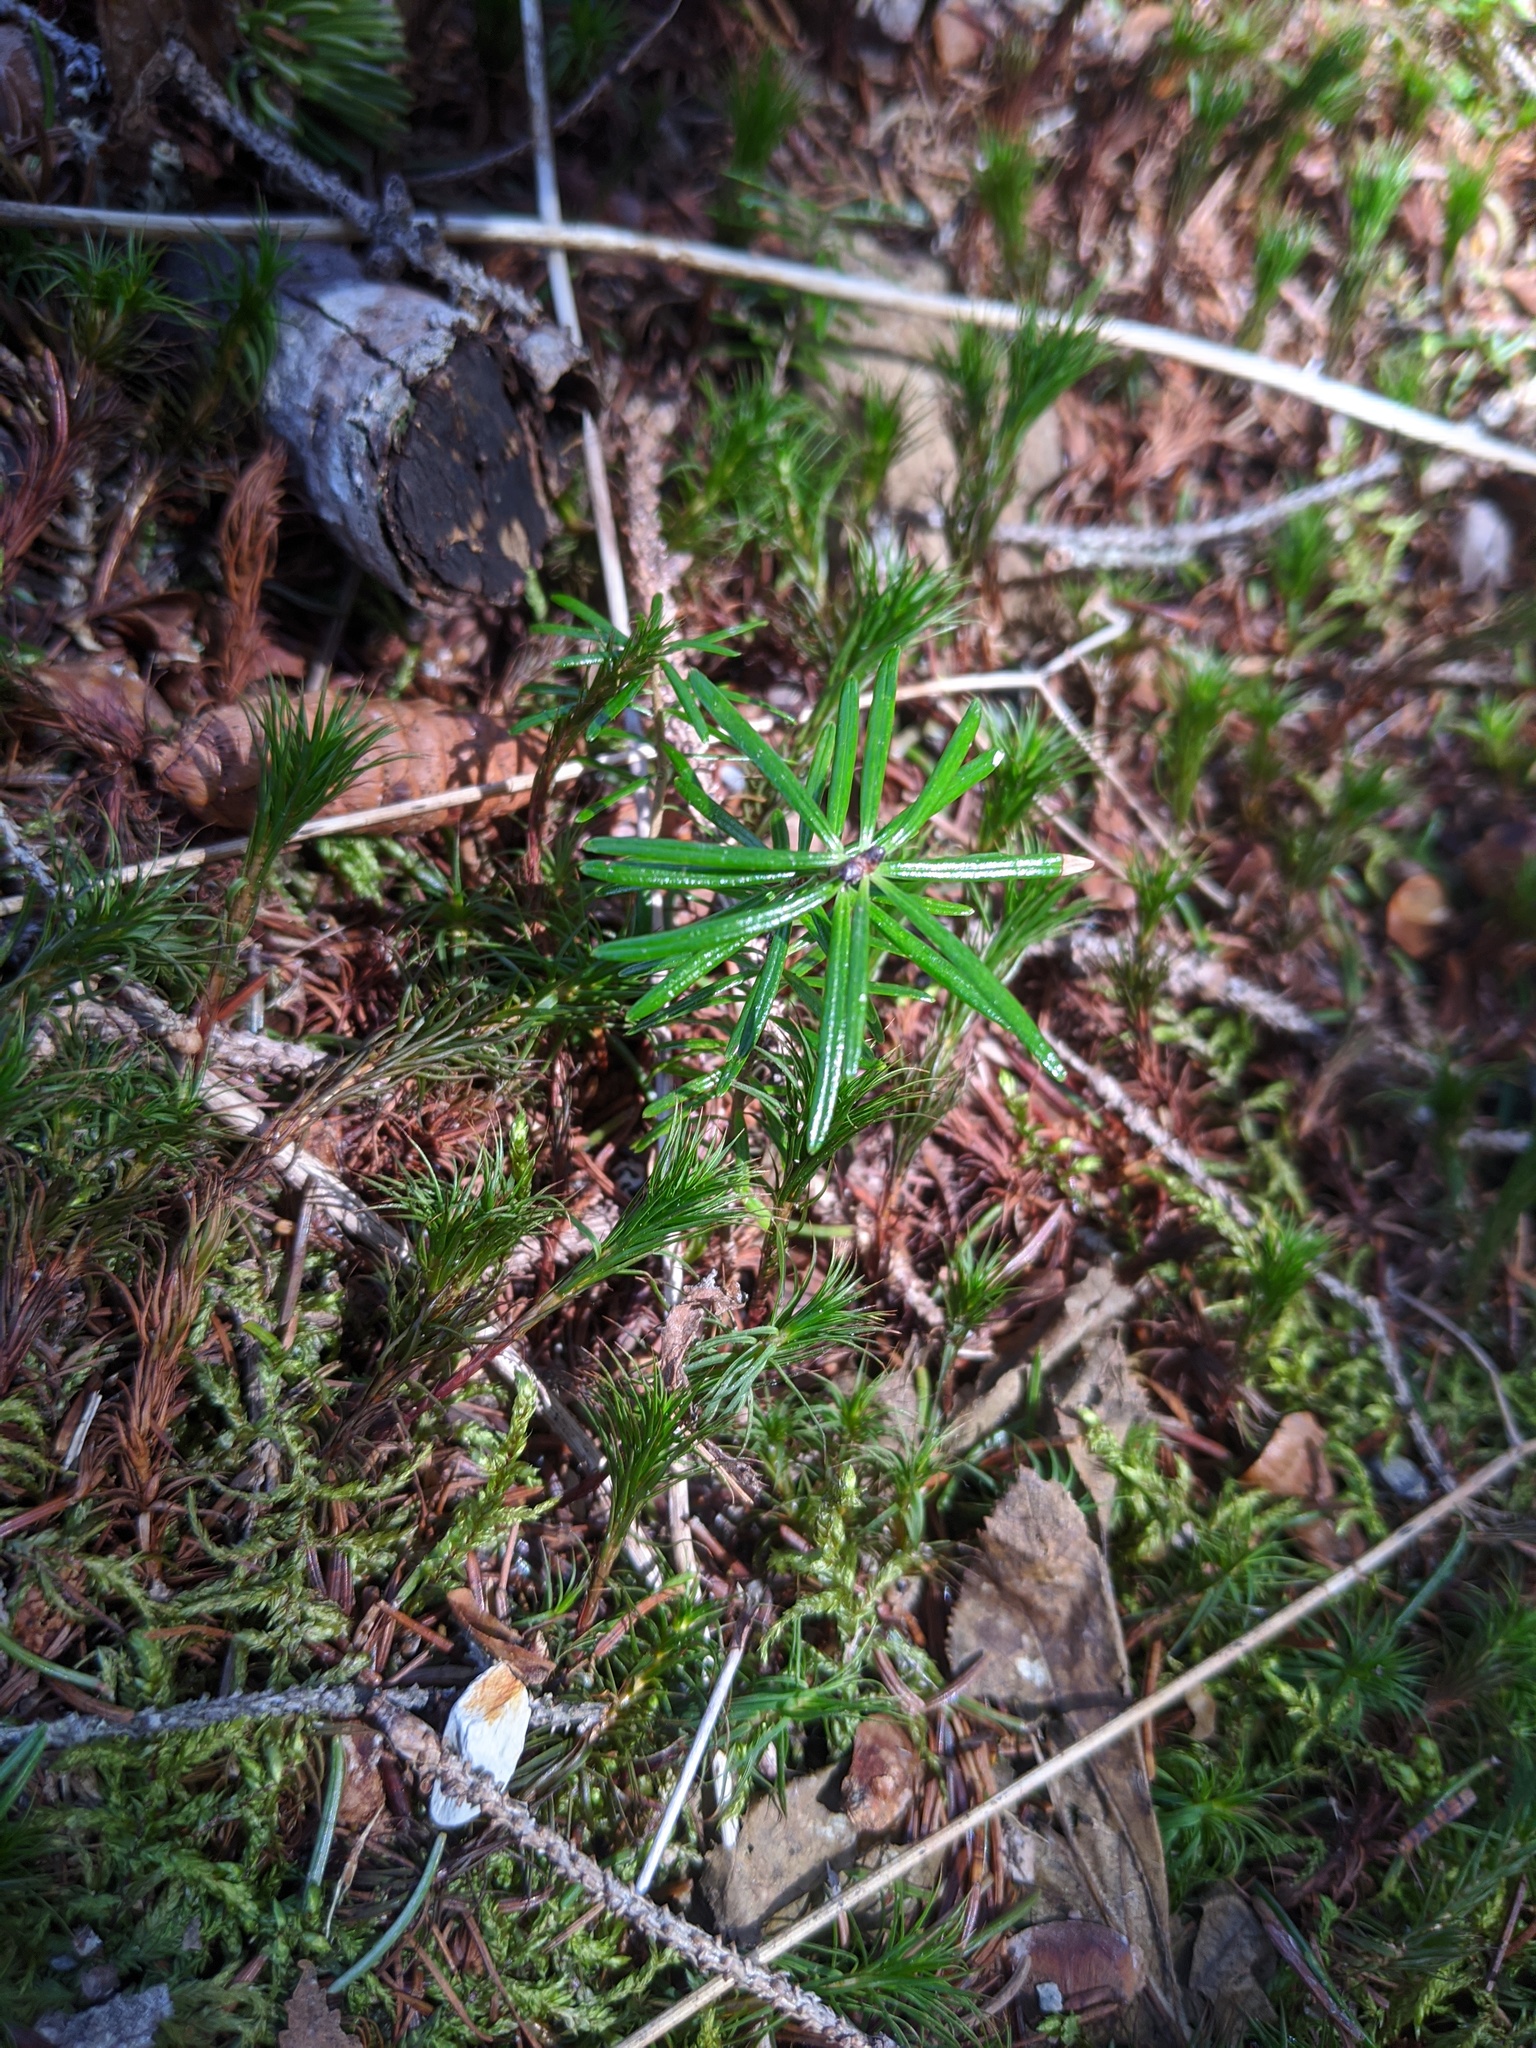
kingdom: Plantae
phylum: Tracheophyta
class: Pinopsida
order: Pinales
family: Pinaceae
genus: Abies
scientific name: Abies balsamea
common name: Balsam fir
